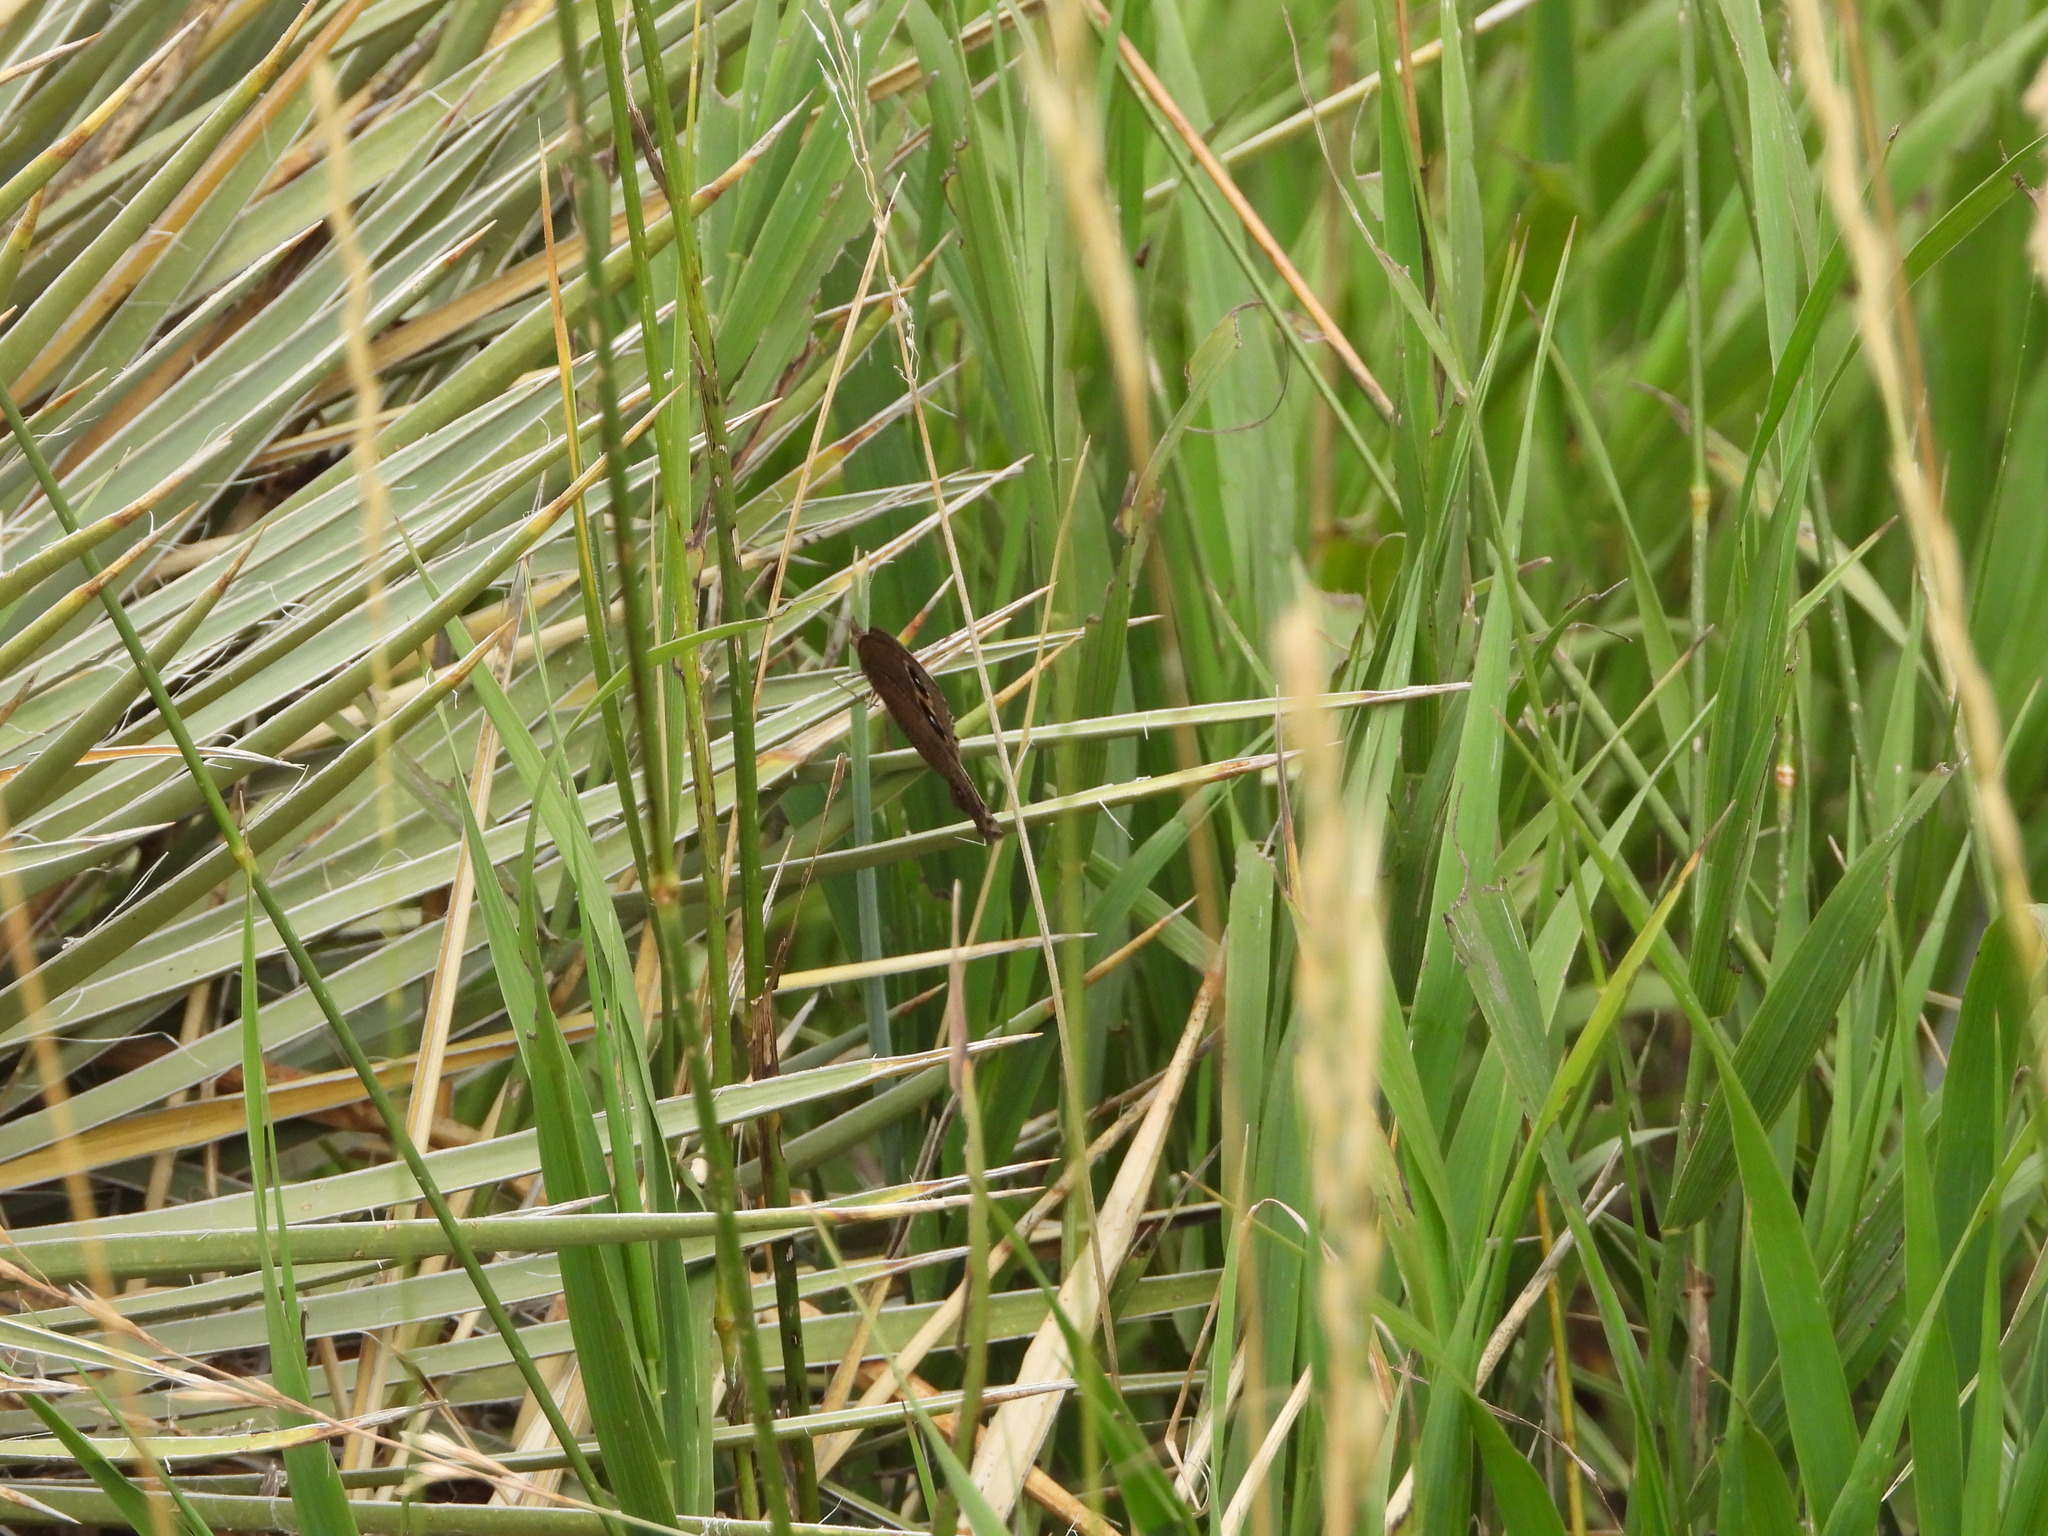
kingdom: Animalia
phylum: Arthropoda
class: Insecta
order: Lepidoptera
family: Nymphalidae
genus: Cercyonis
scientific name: Cercyonis pegala
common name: Common wood-nymph
